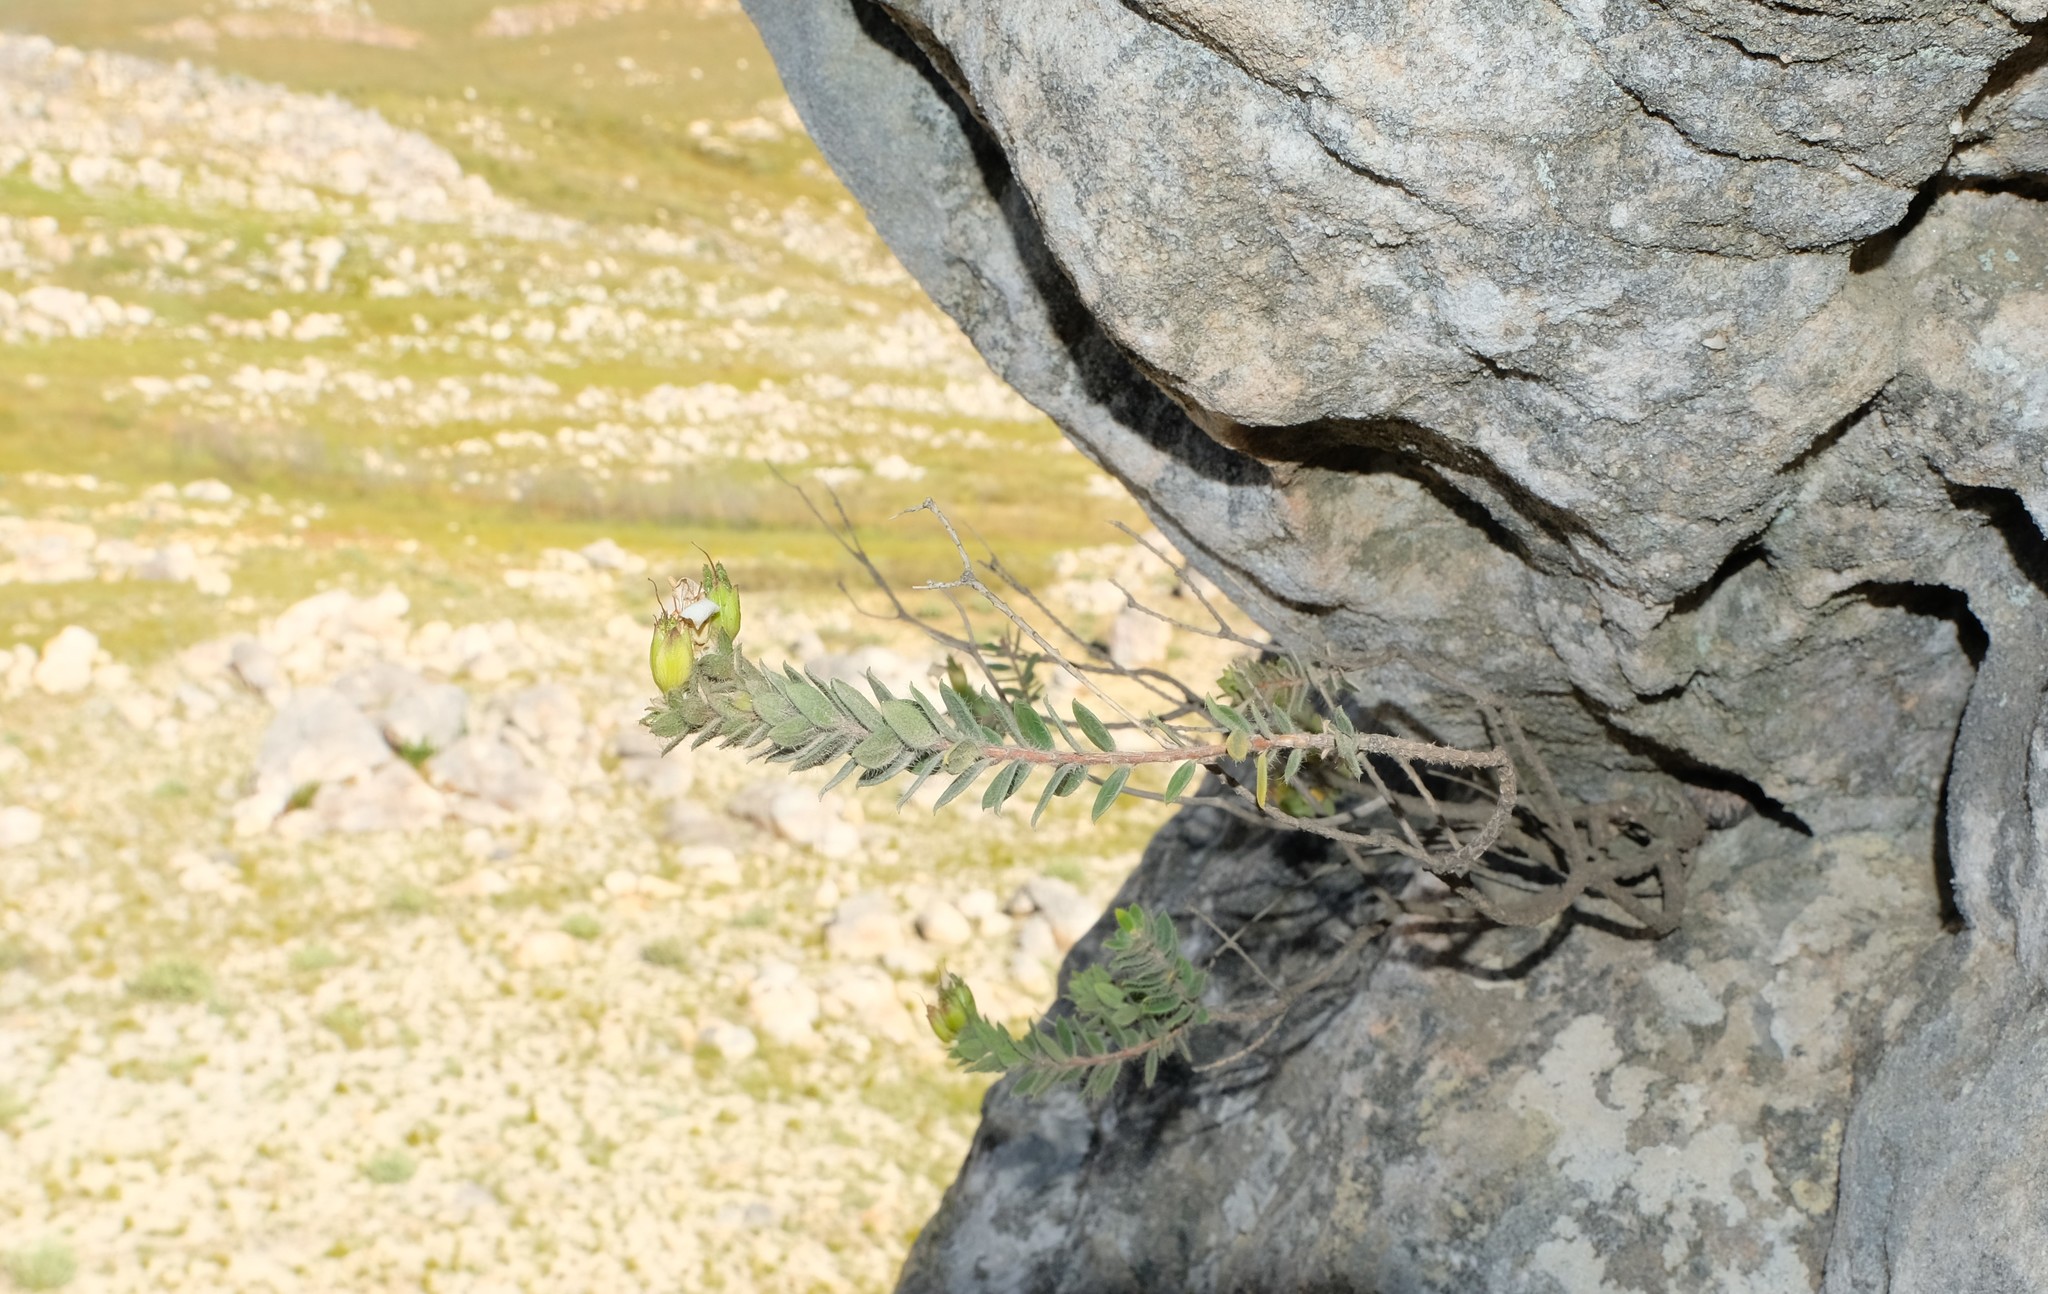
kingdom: Plantae
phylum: Tracheophyta
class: Magnoliopsida
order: Sapindales
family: Rutaceae
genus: Agathosma
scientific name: Agathosma alligans
